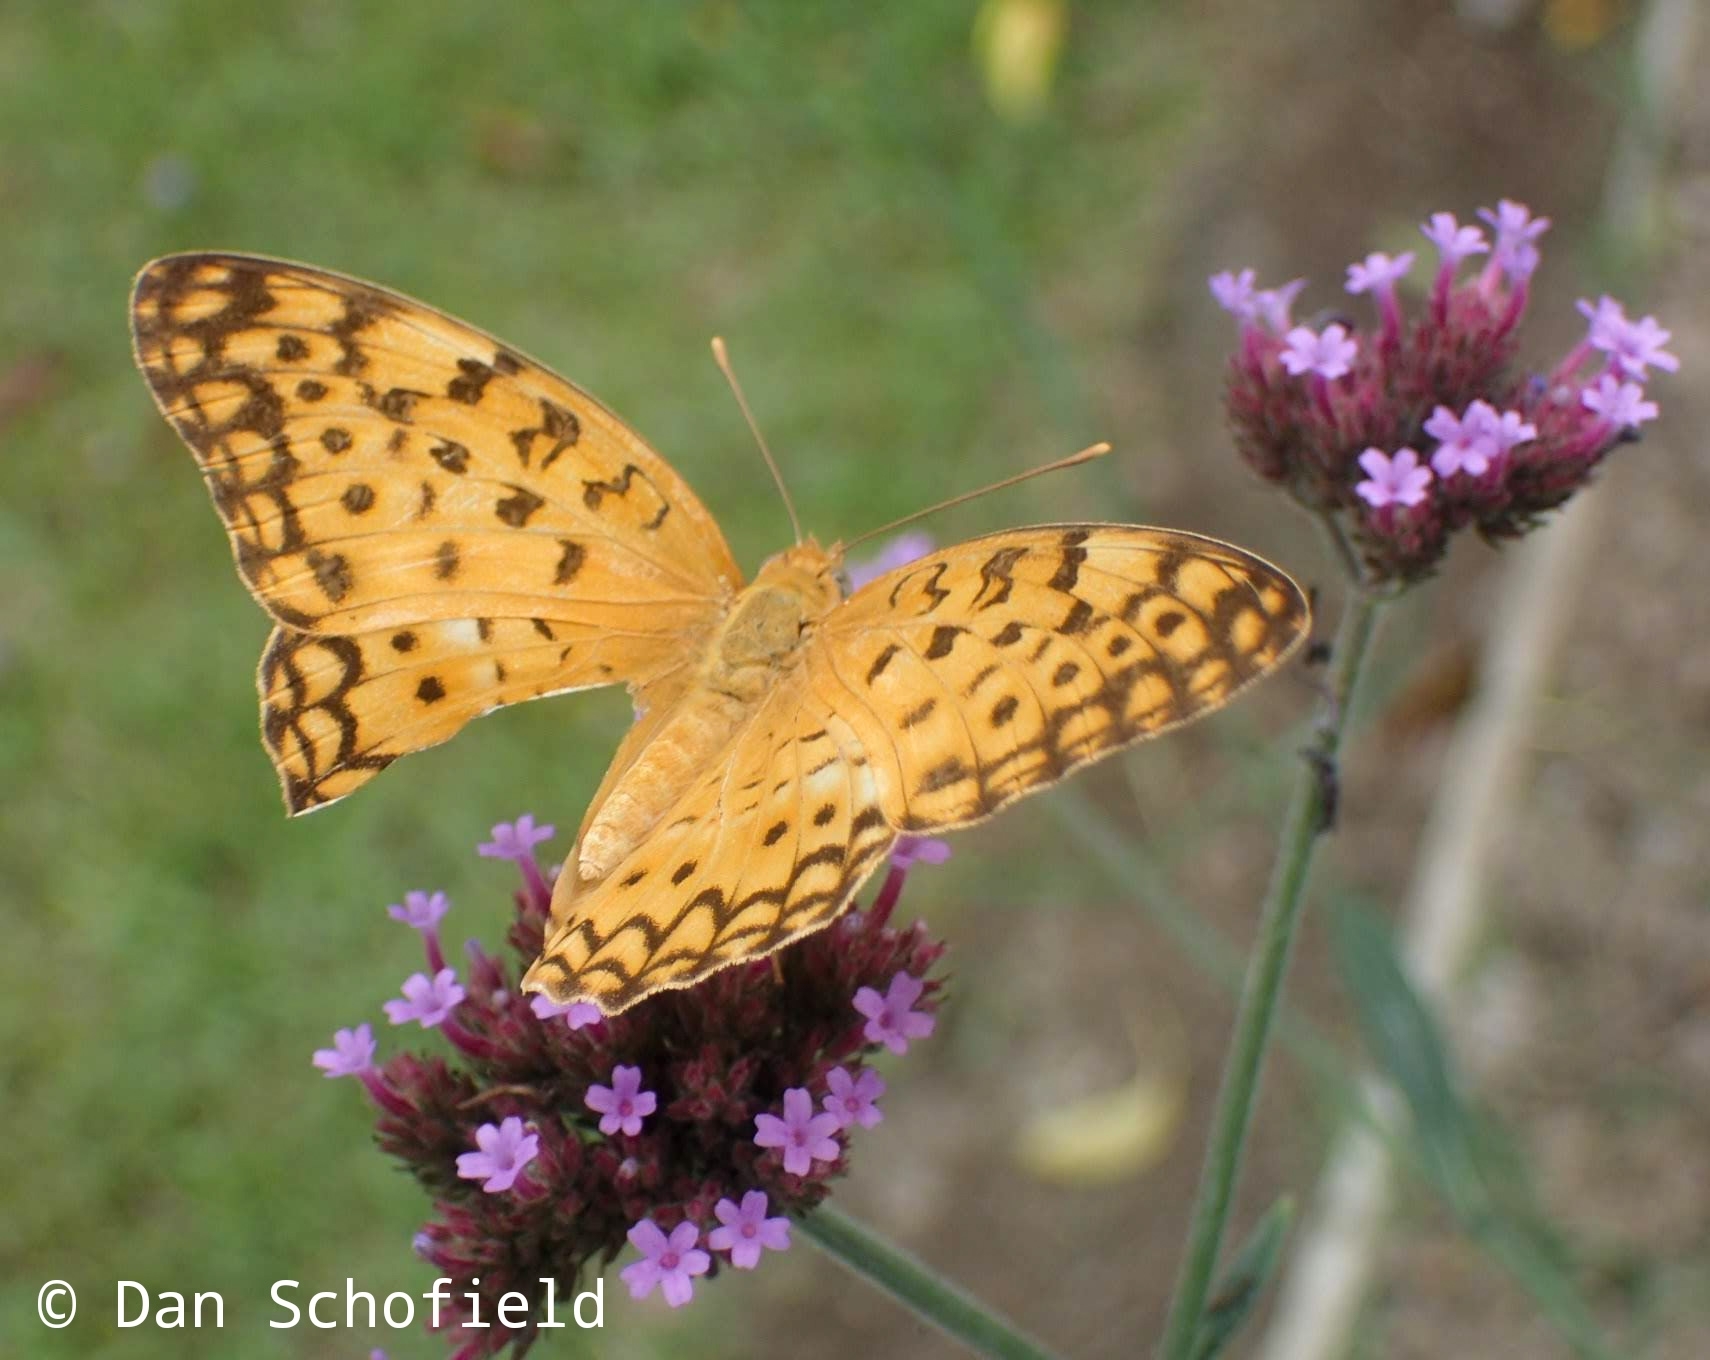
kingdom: Animalia
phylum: Arthropoda
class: Insecta
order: Lepidoptera
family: Nymphalidae
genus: Phalanta
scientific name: Phalanta phalantha
